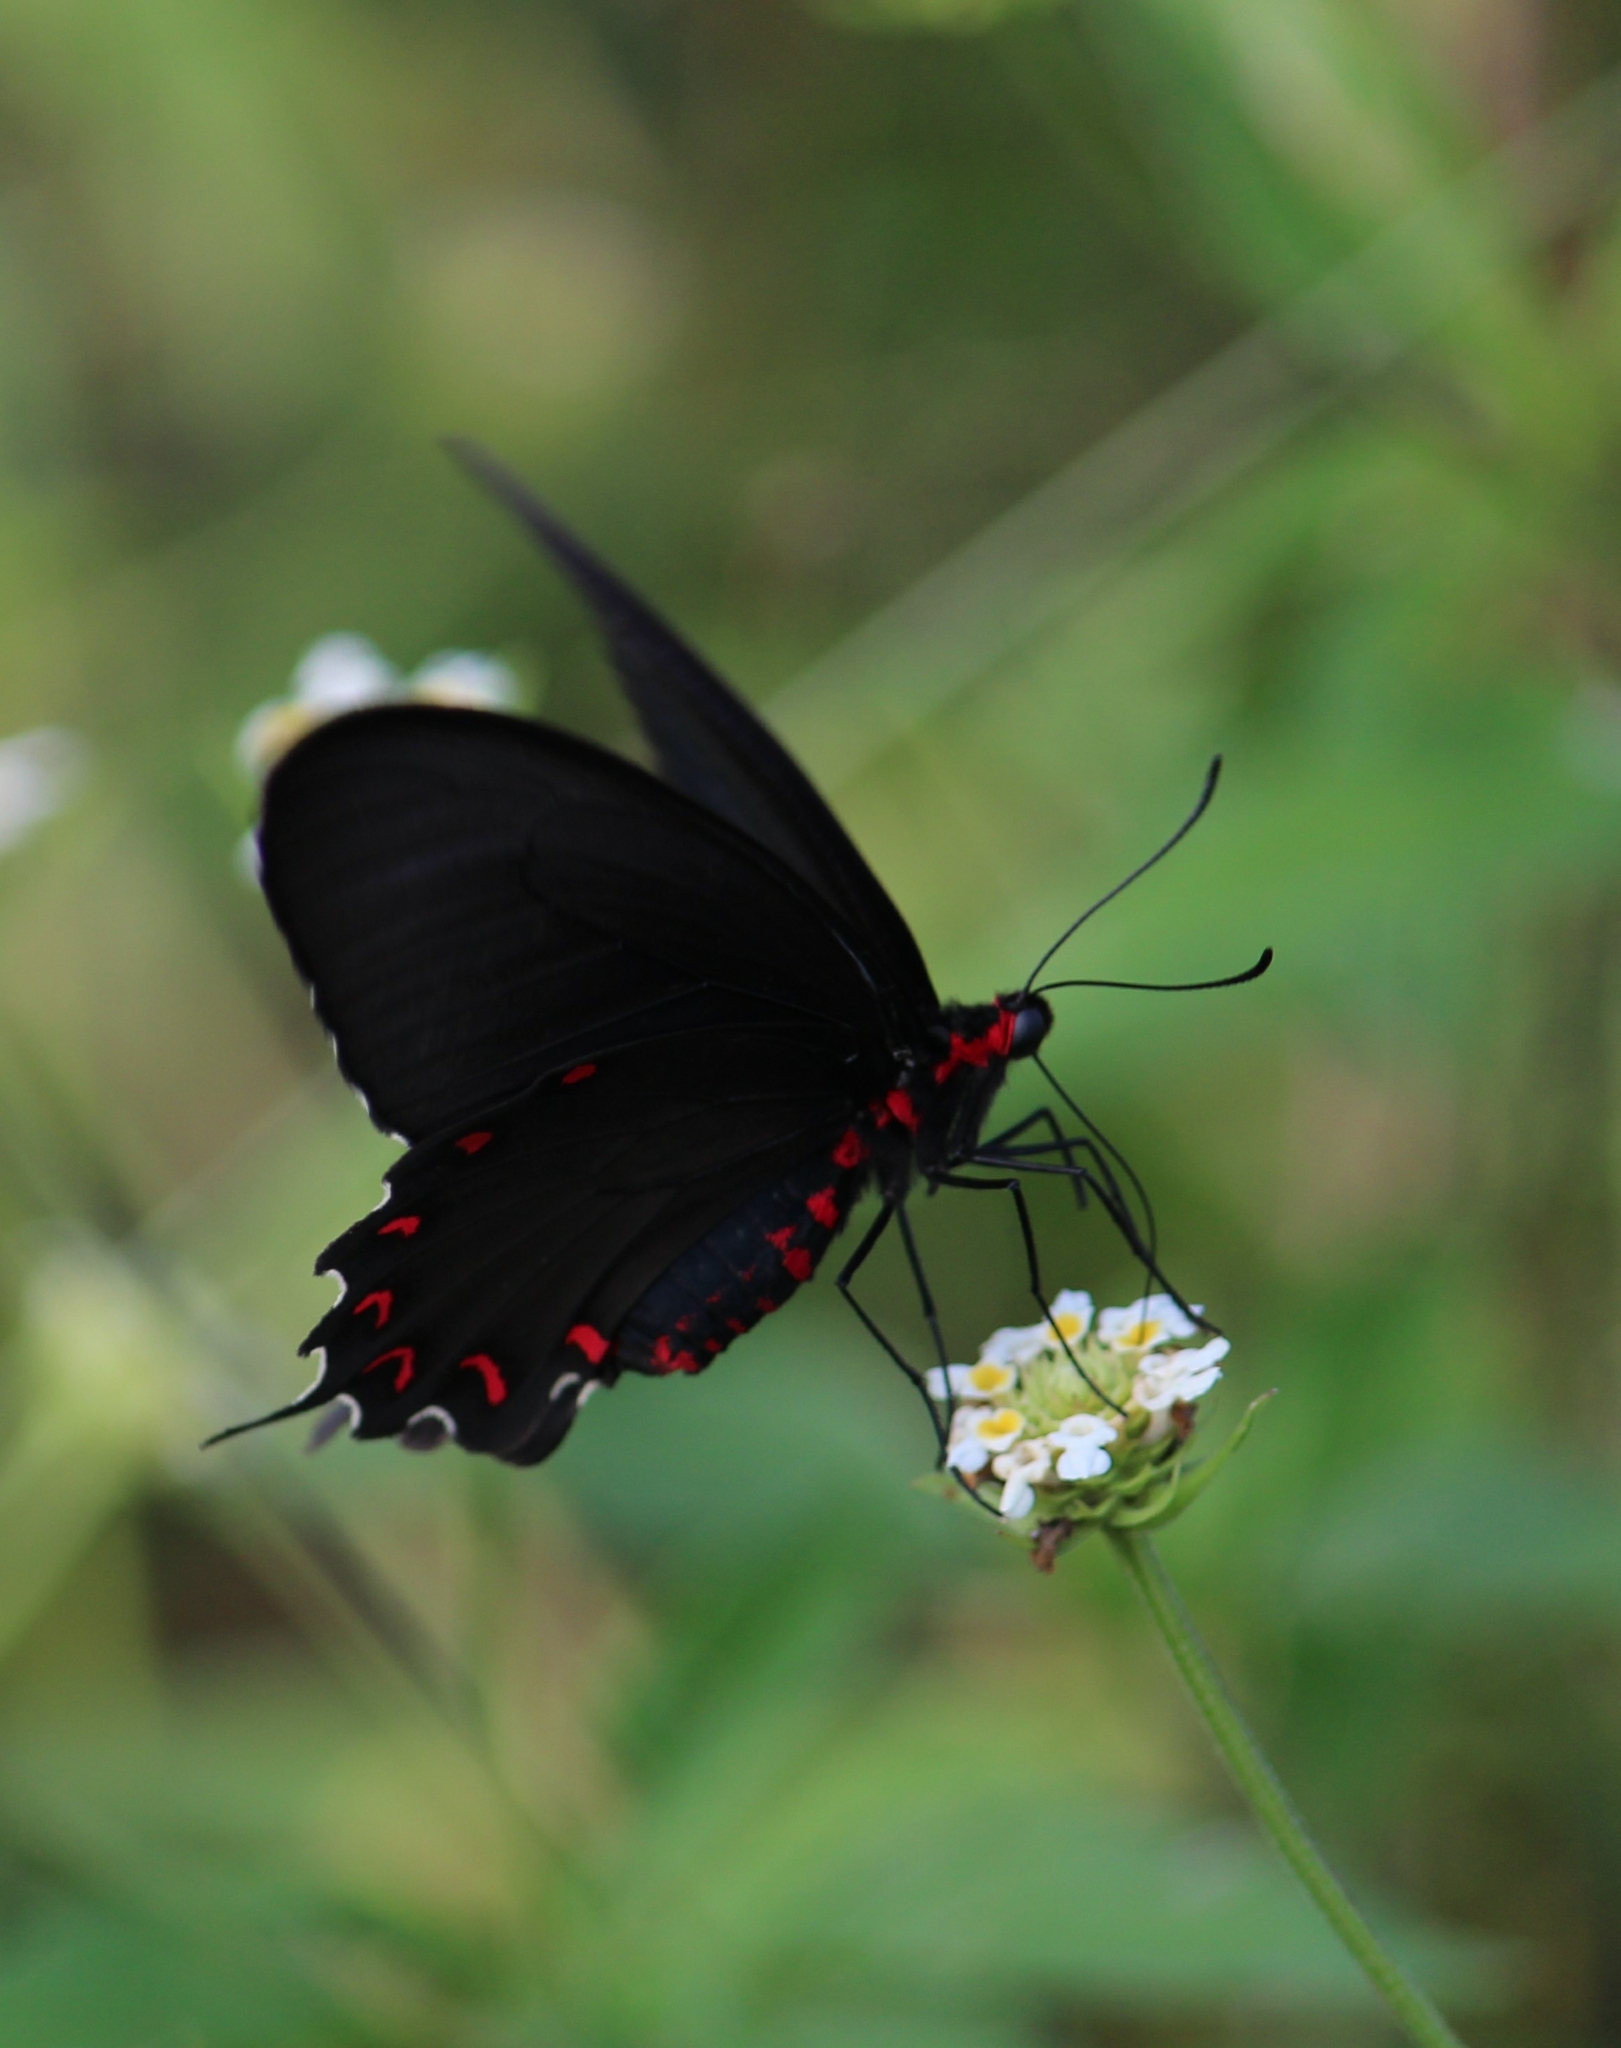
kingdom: Animalia
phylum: Arthropoda
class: Insecta
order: Lepidoptera
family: Papilionidae
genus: Parides
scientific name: Parides montezuma
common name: Montezuma's cattleheart
